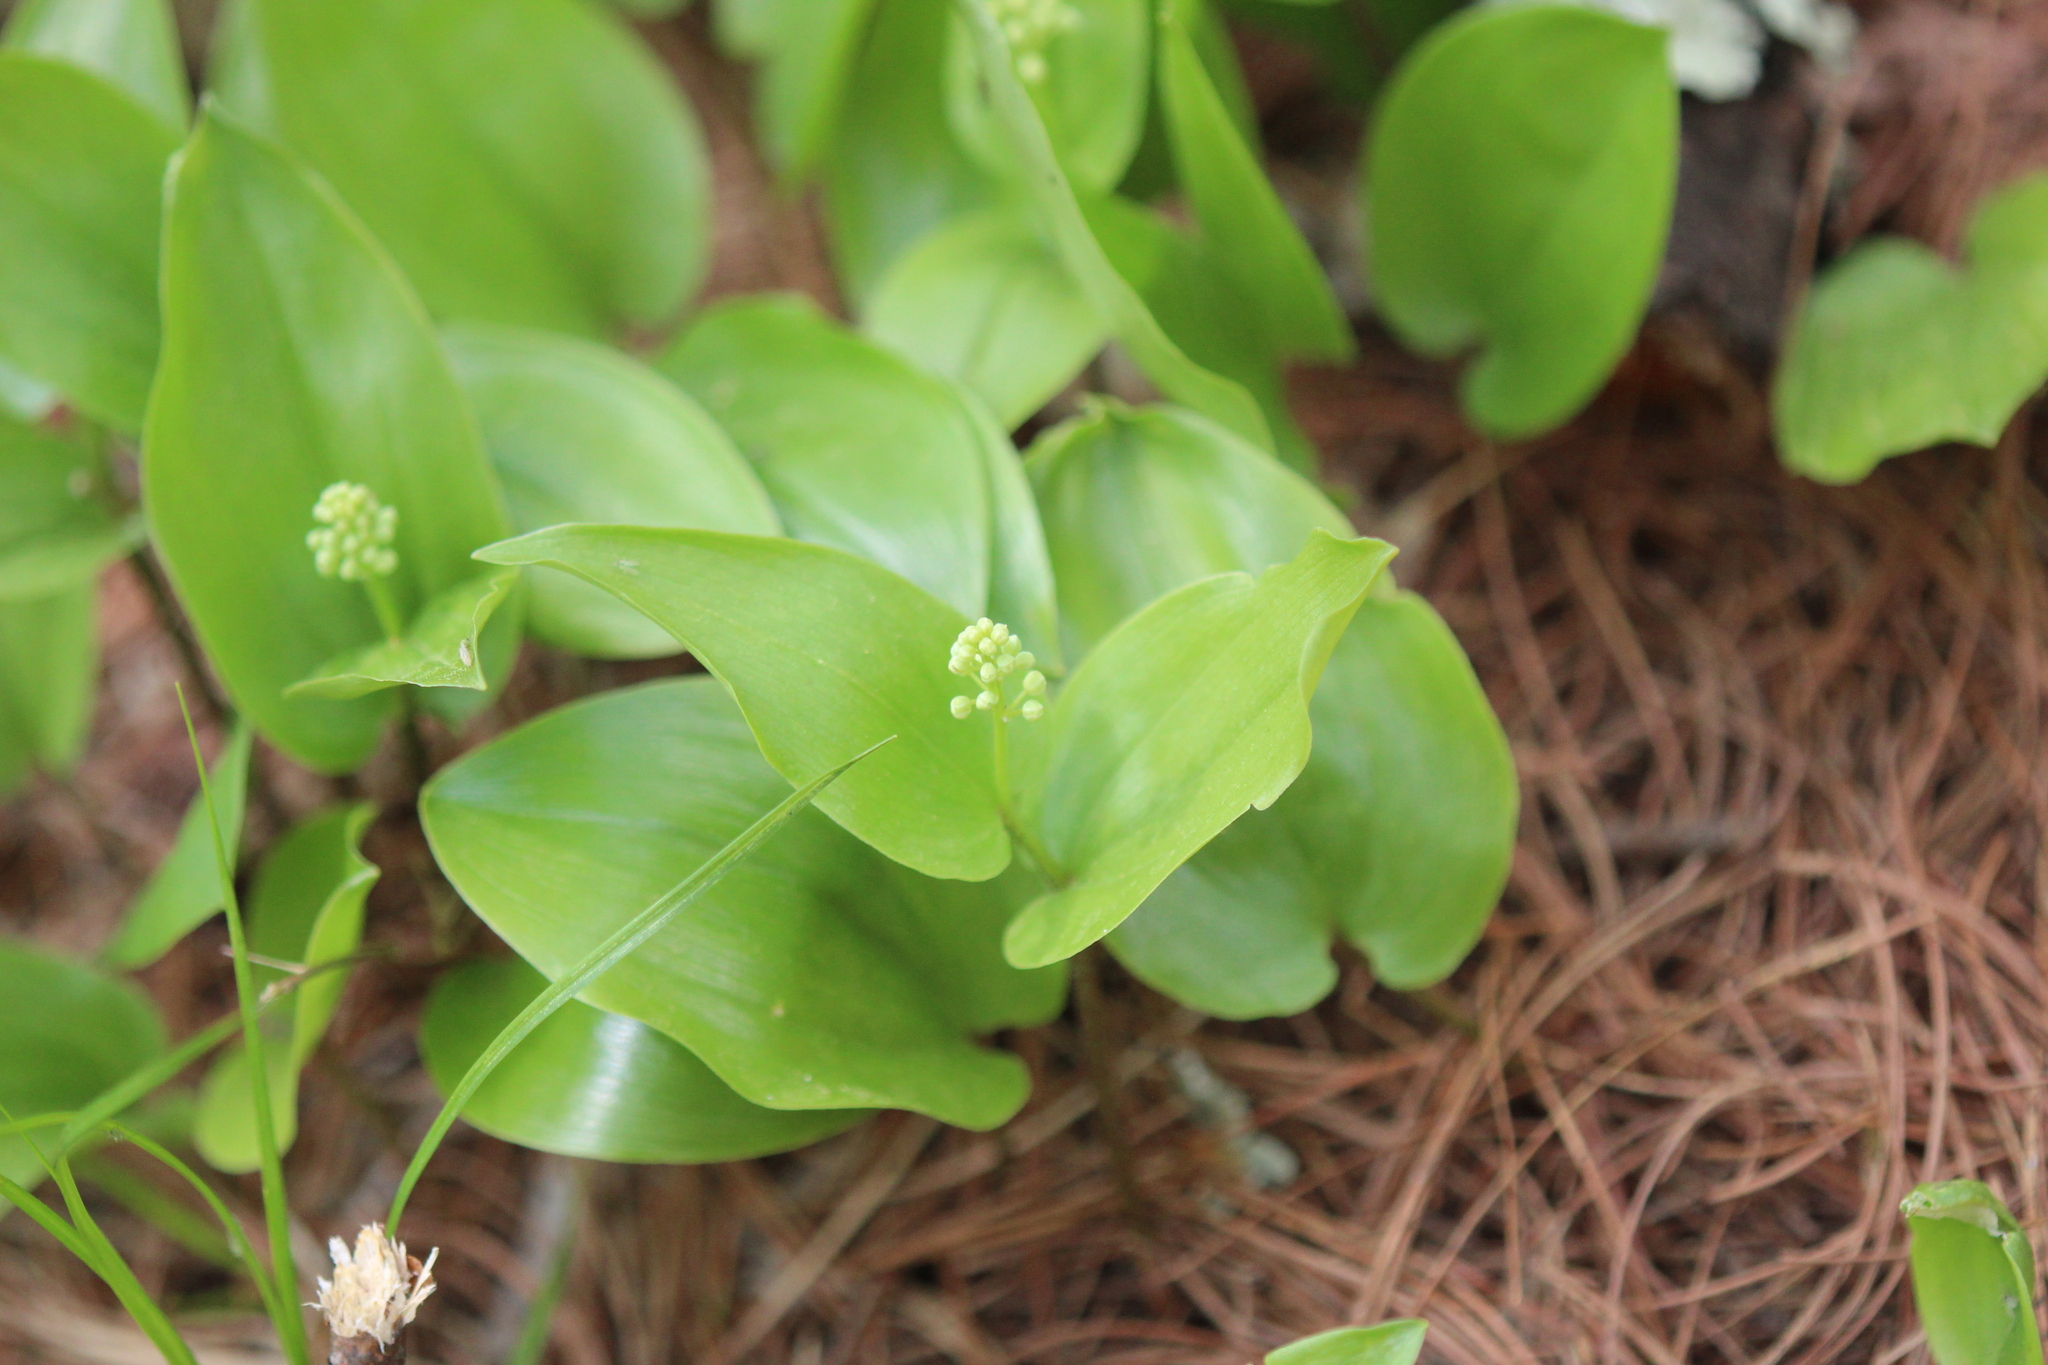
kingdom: Plantae
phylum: Tracheophyta
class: Liliopsida
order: Asparagales
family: Asparagaceae
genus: Maianthemum
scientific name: Maianthemum canadense
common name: False lily-of-the-valley
